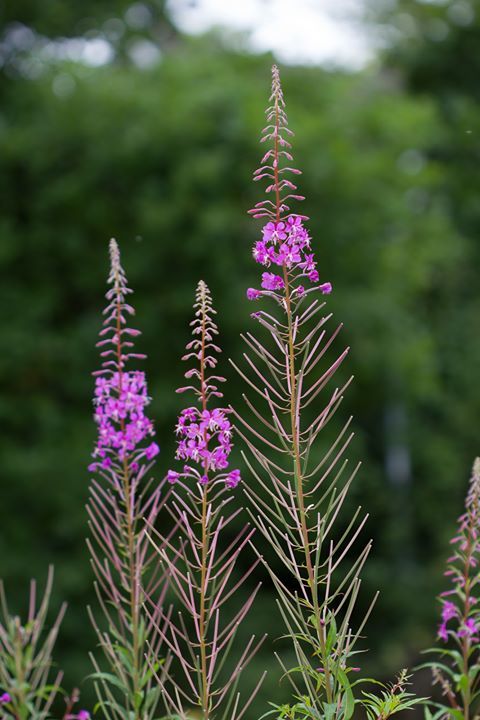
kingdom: Plantae
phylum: Tracheophyta
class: Magnoliopsida
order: Myrtales
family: Onagraceae
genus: Chamaenerion
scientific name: Chamaenerion angustifolium
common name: Fireweed
